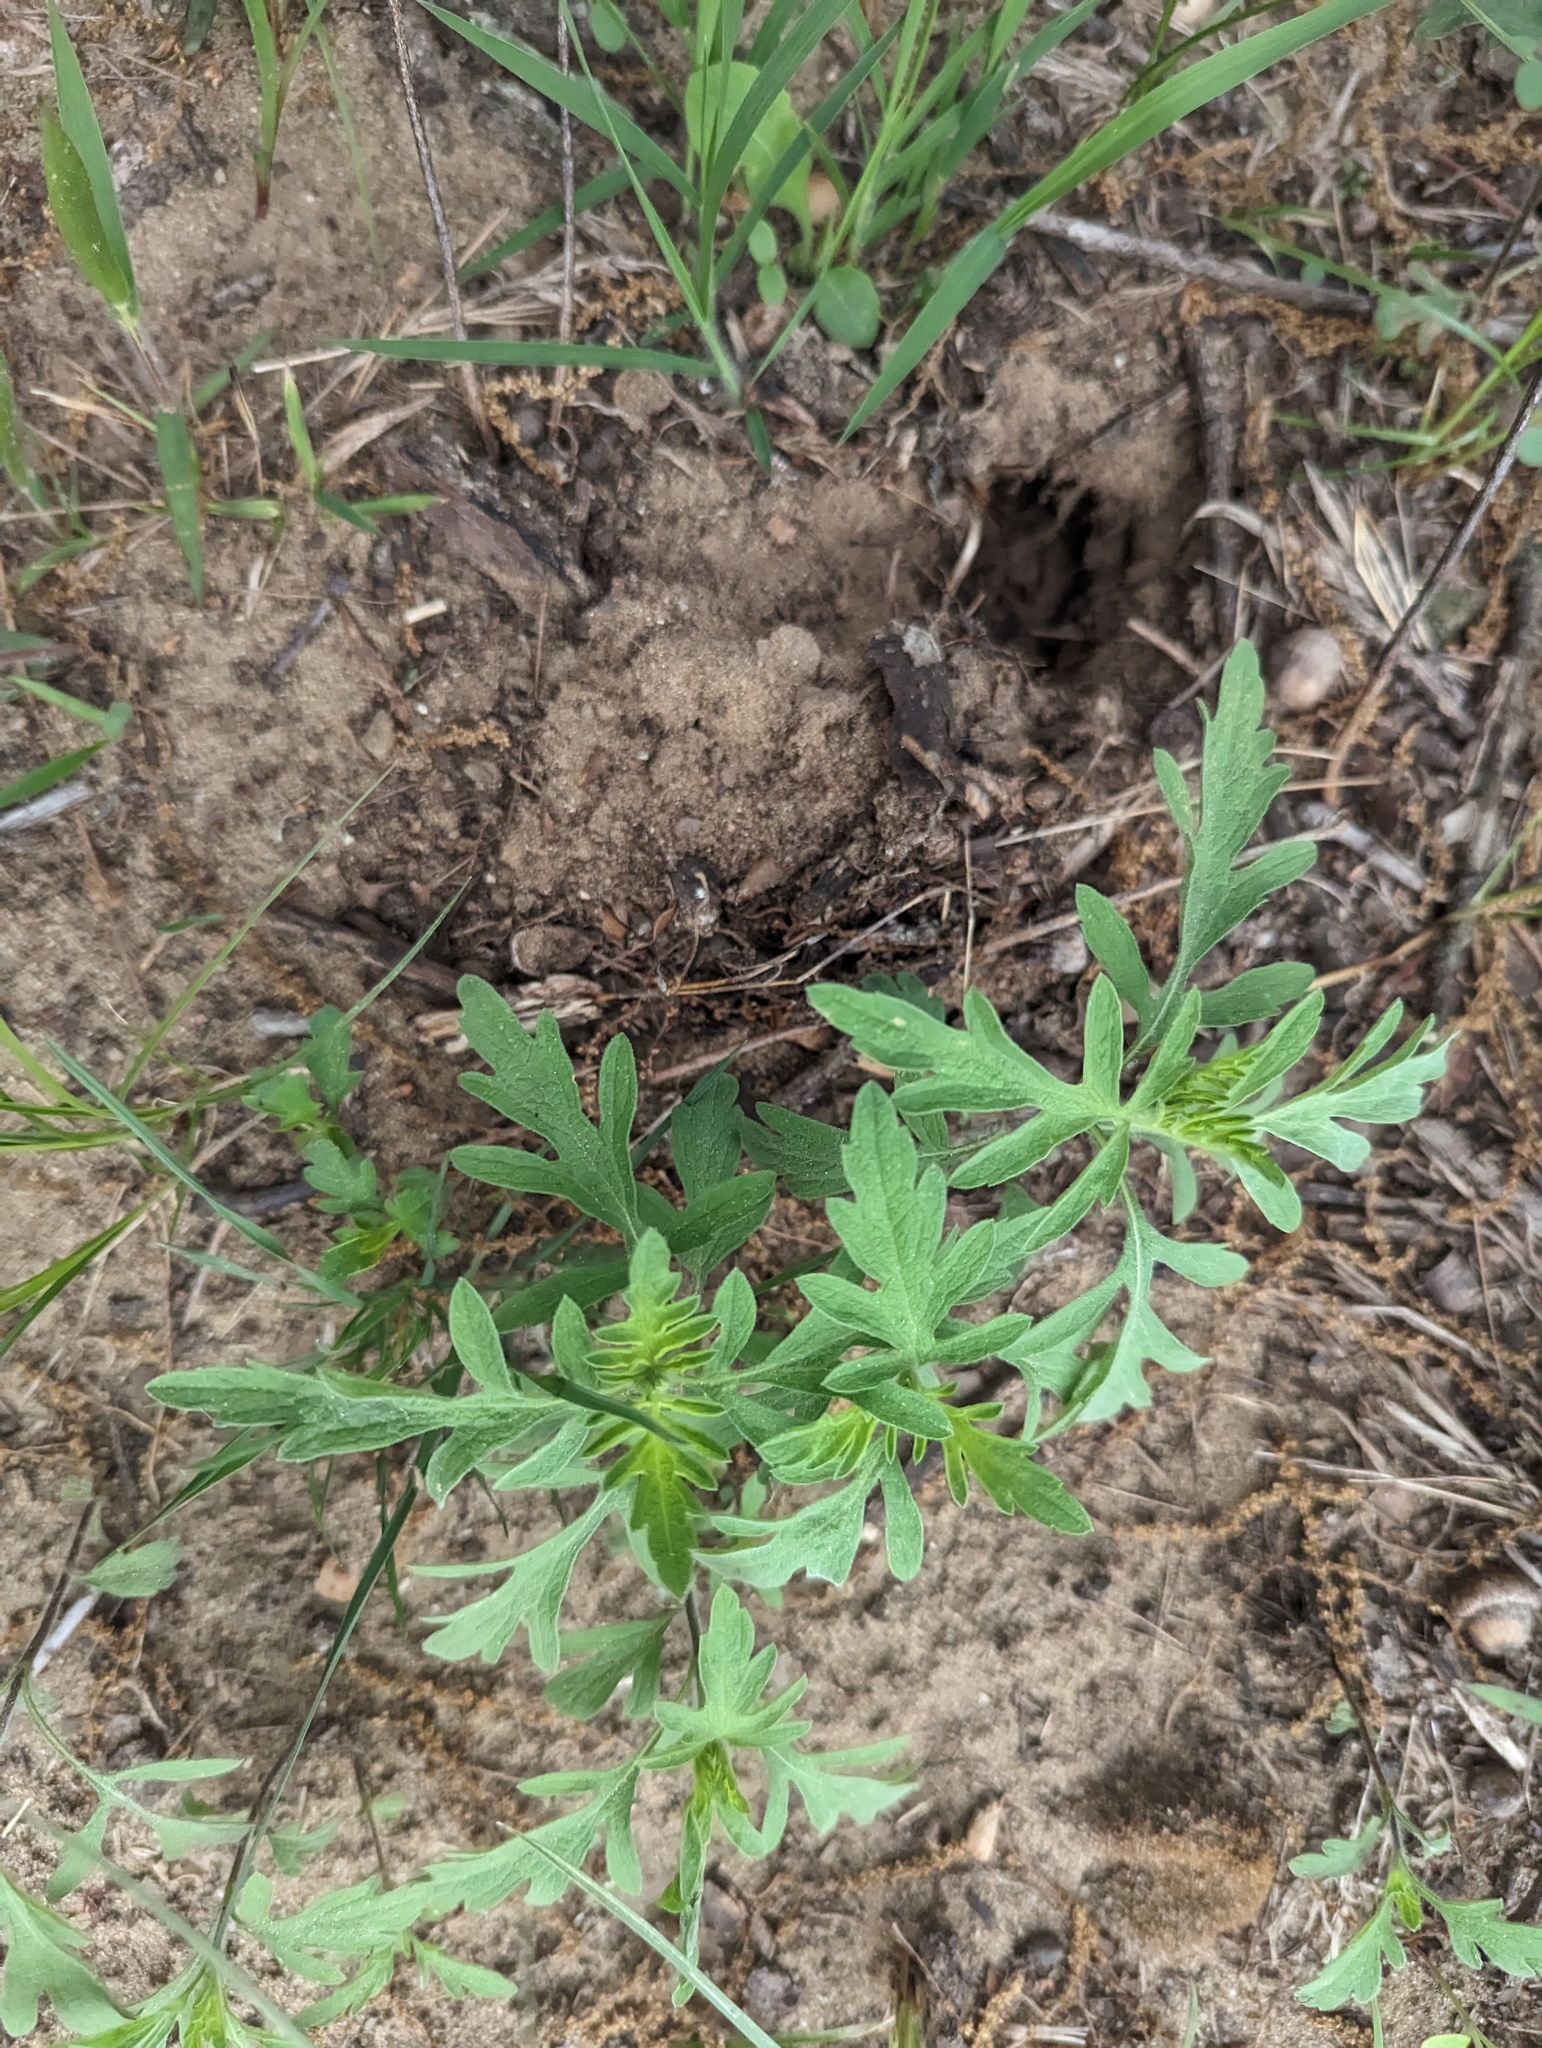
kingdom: Plantae
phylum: Tracheophyta
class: Magnoliopsida
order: Asterales
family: Asteraceae
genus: Ambrosia
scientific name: Ambrosia psilostachya
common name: Perennial ragweed
